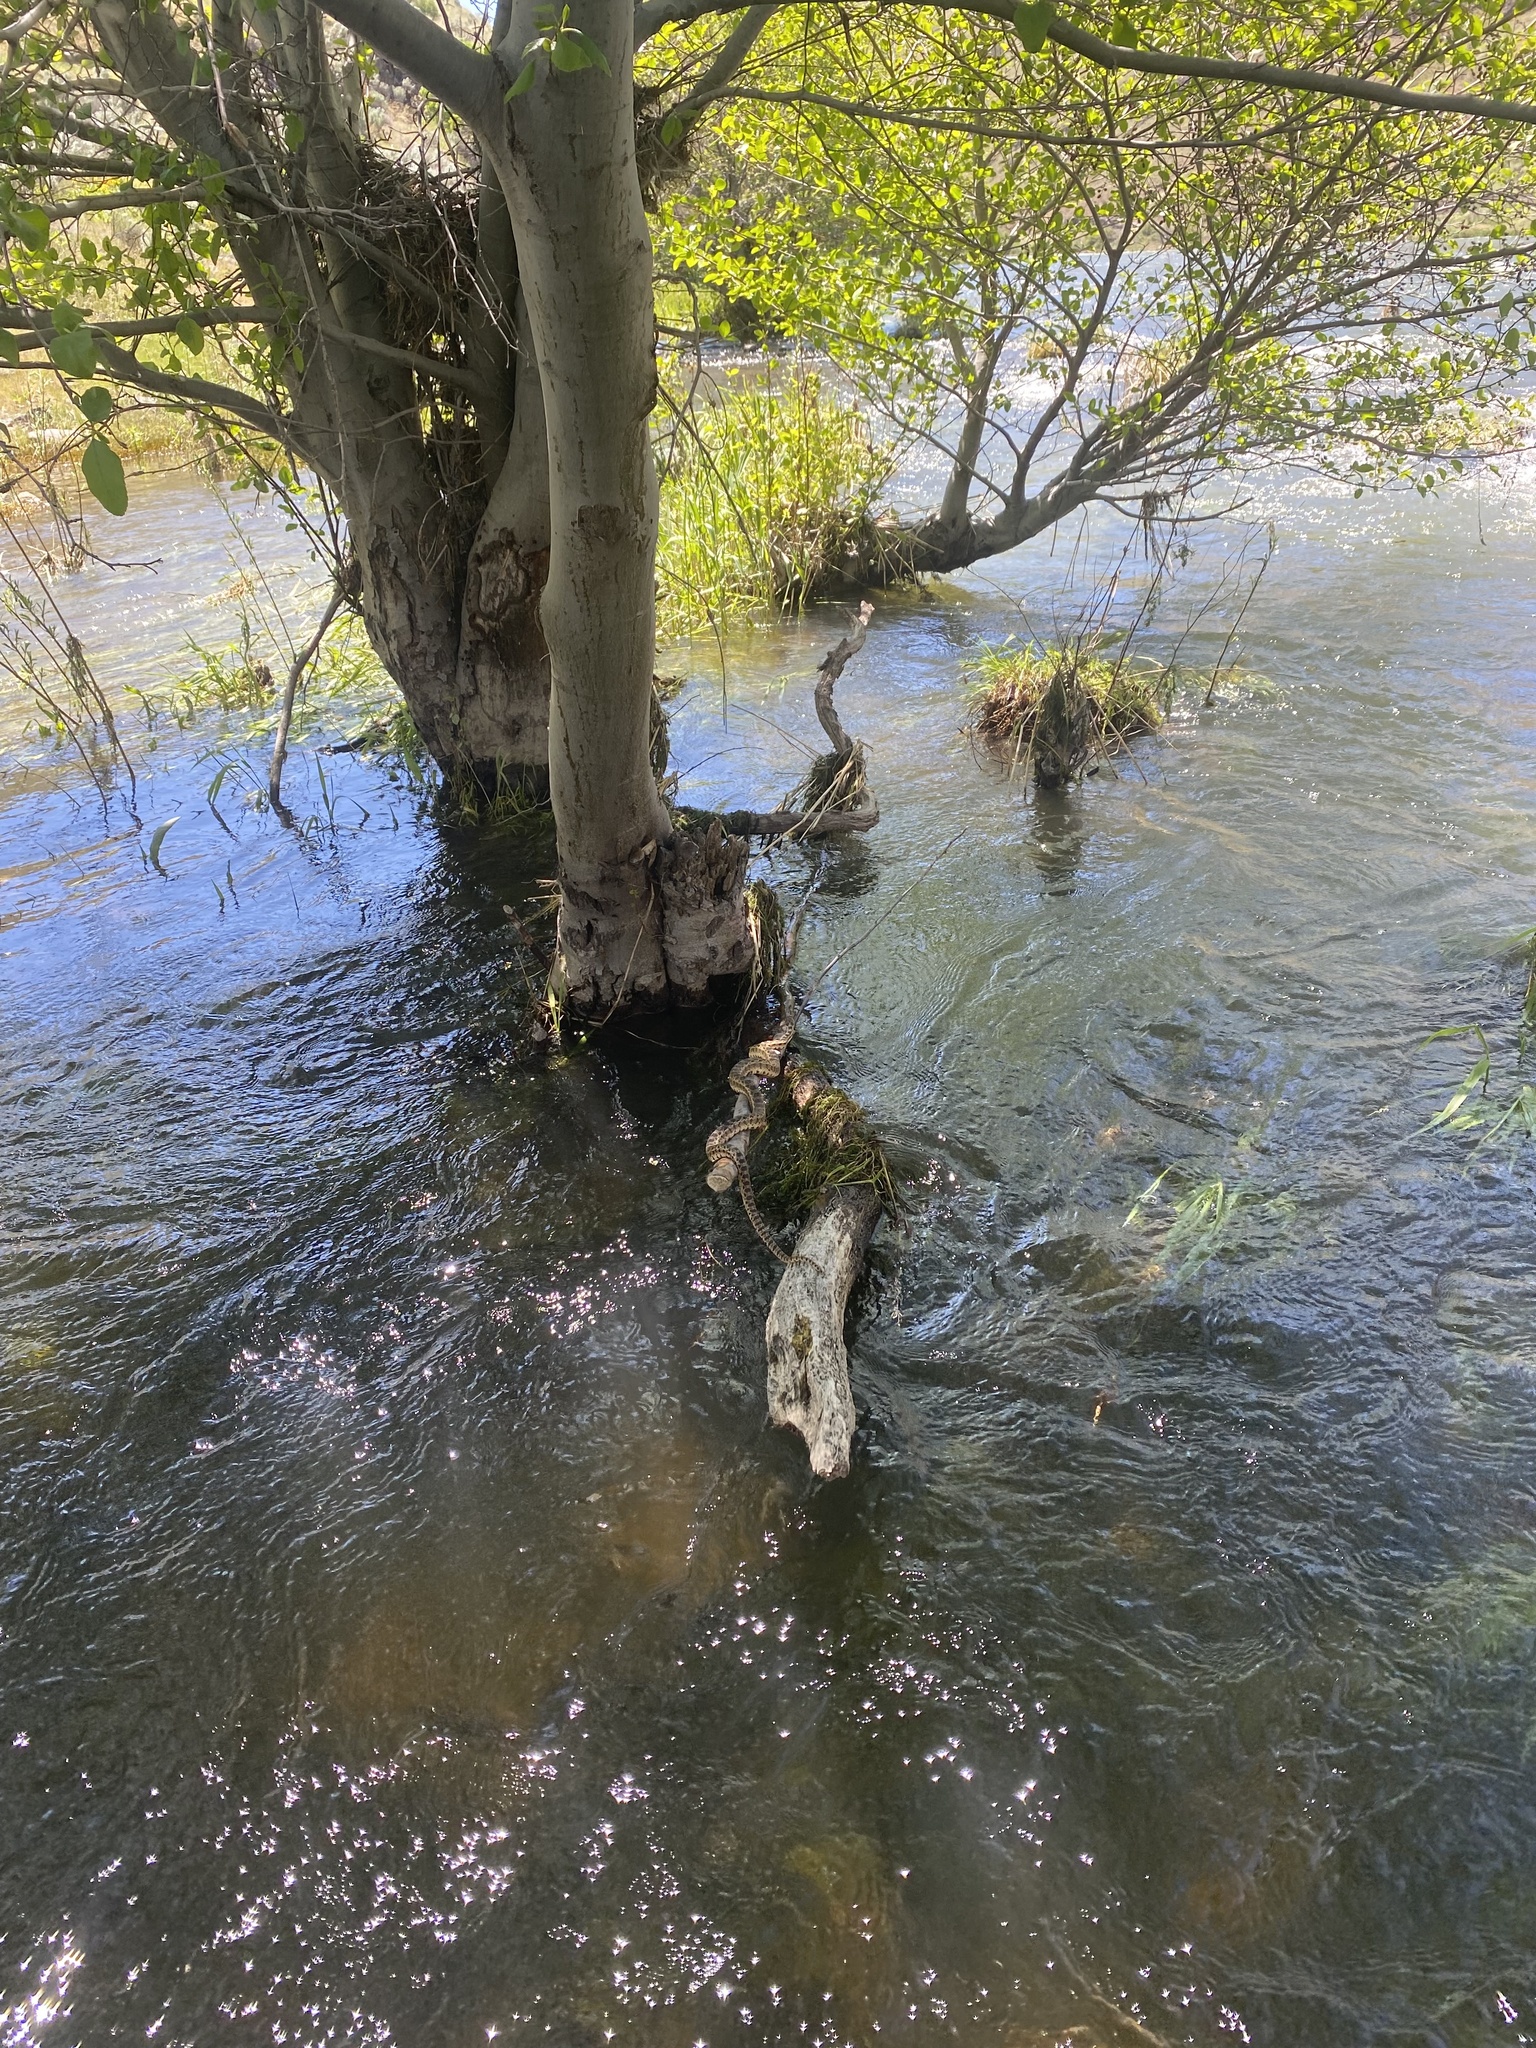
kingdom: Animalia
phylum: Chordata
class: Squamata
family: Colubridae
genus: Pituophis
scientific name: Pituophis catenifer
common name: Gopher snake
